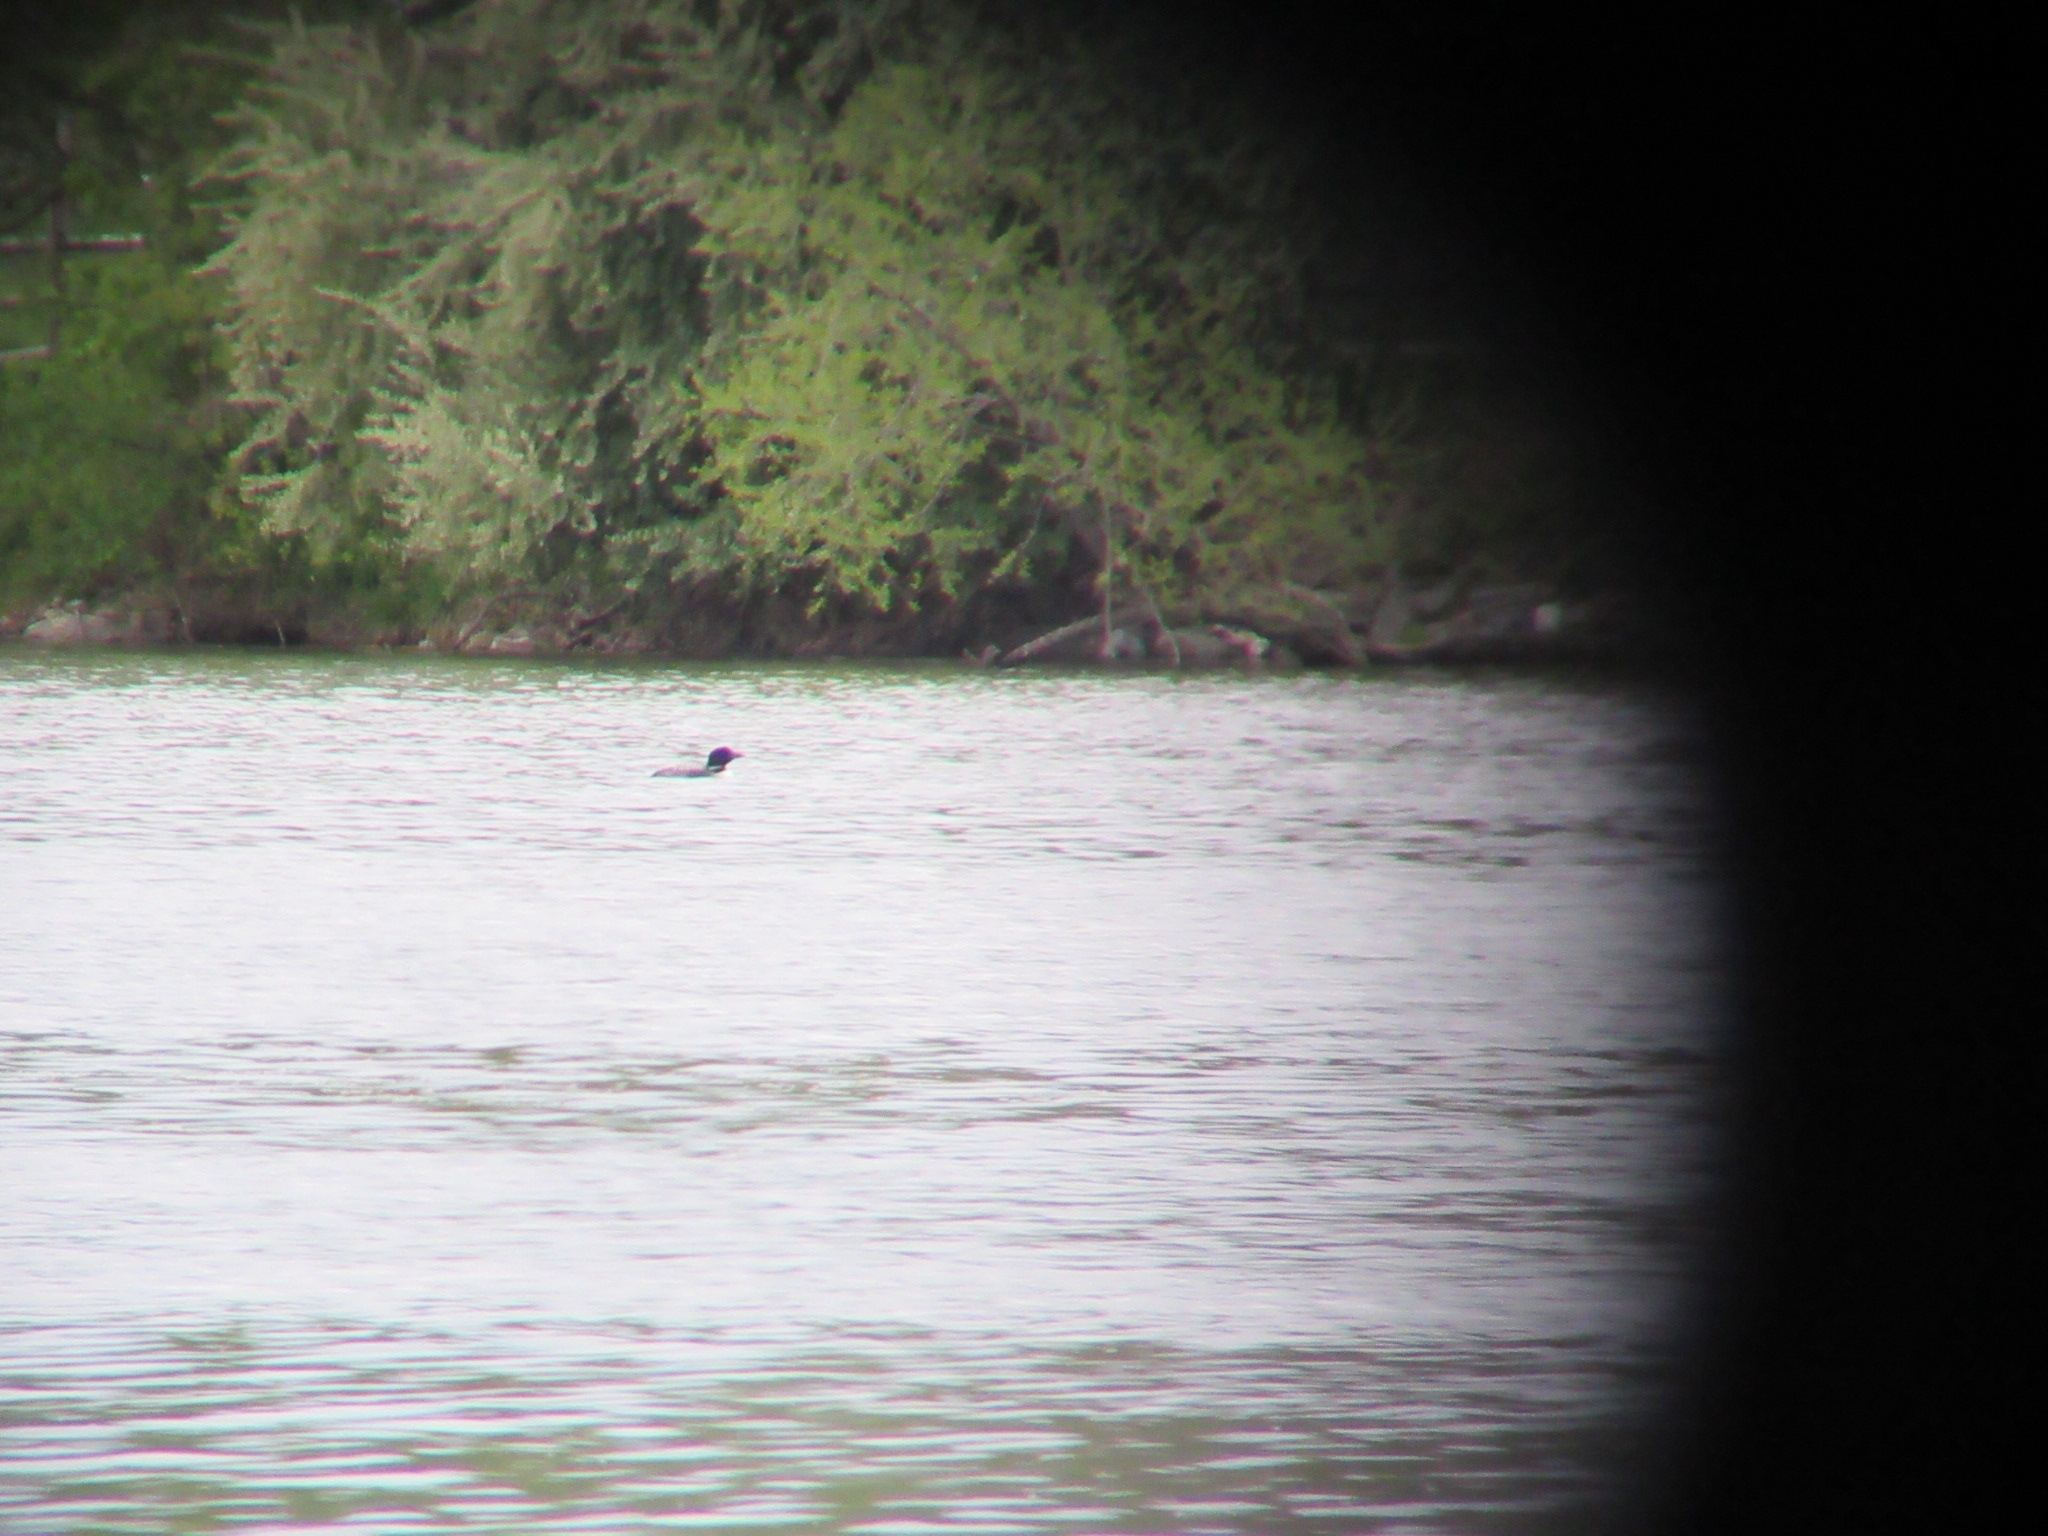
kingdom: Animalia
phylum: Chordata
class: Aves
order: Gaviiformes
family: Gaviidae
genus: Gavia
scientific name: Gavia immer
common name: Common loon
